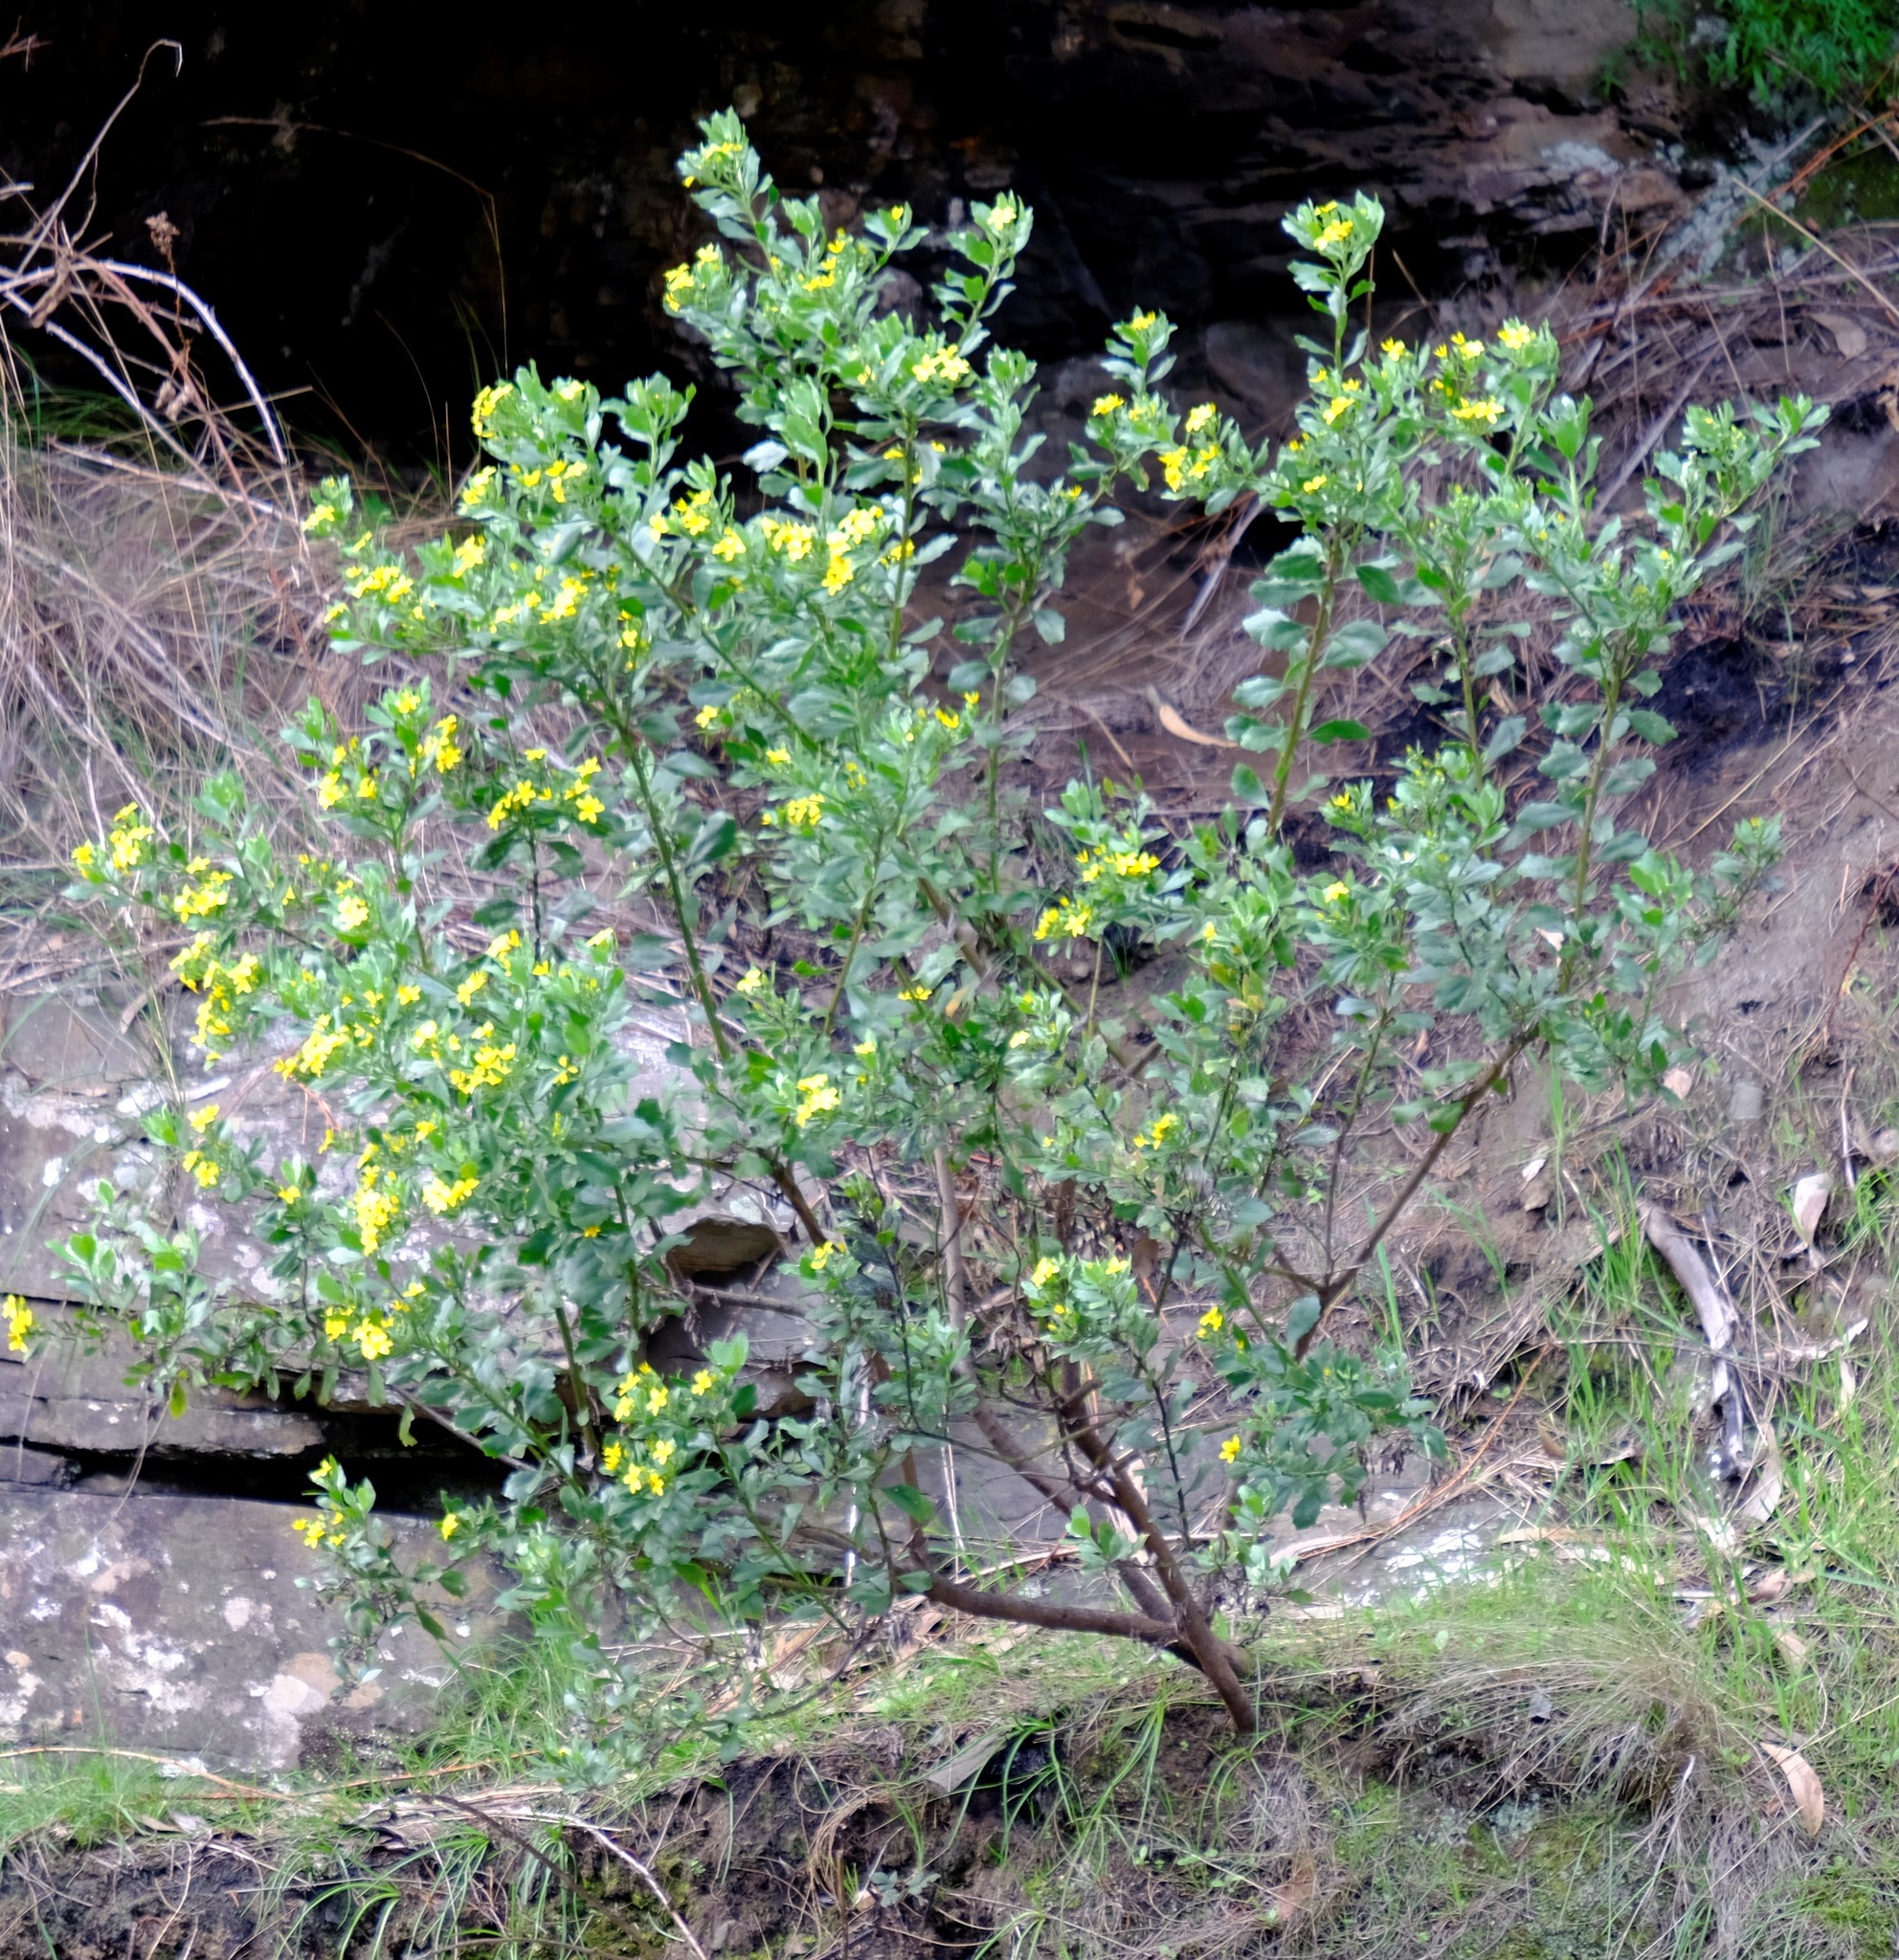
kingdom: Plantae
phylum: Tracheophyta
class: Magnoliopsida
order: Asterales
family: Asteraceae
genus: Osteospermum
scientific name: Osteospermum moniliferum
